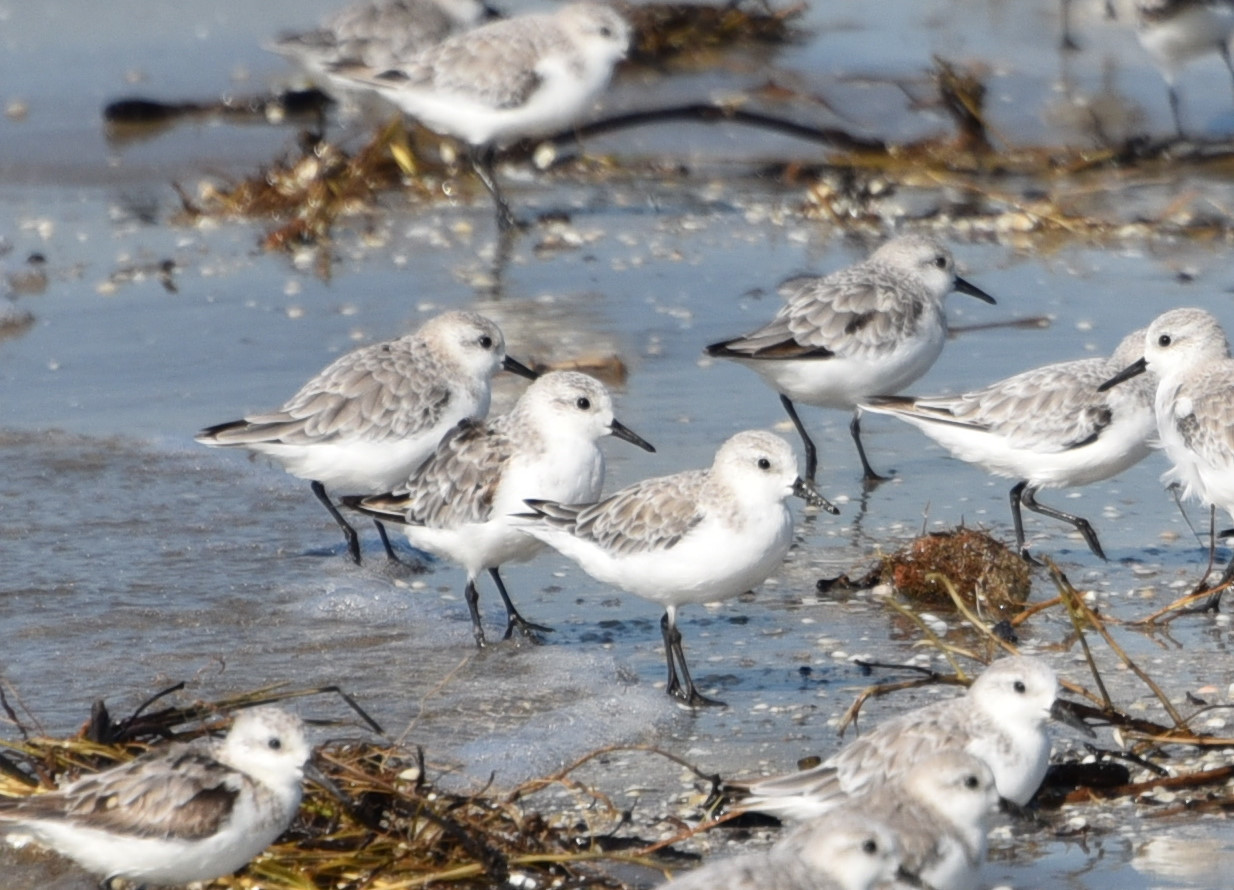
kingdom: Animalia
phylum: Chordata
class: Aves
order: Charadriiformes
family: Scolopacidae
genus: Calidris
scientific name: Calidris alba
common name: Sanderling
